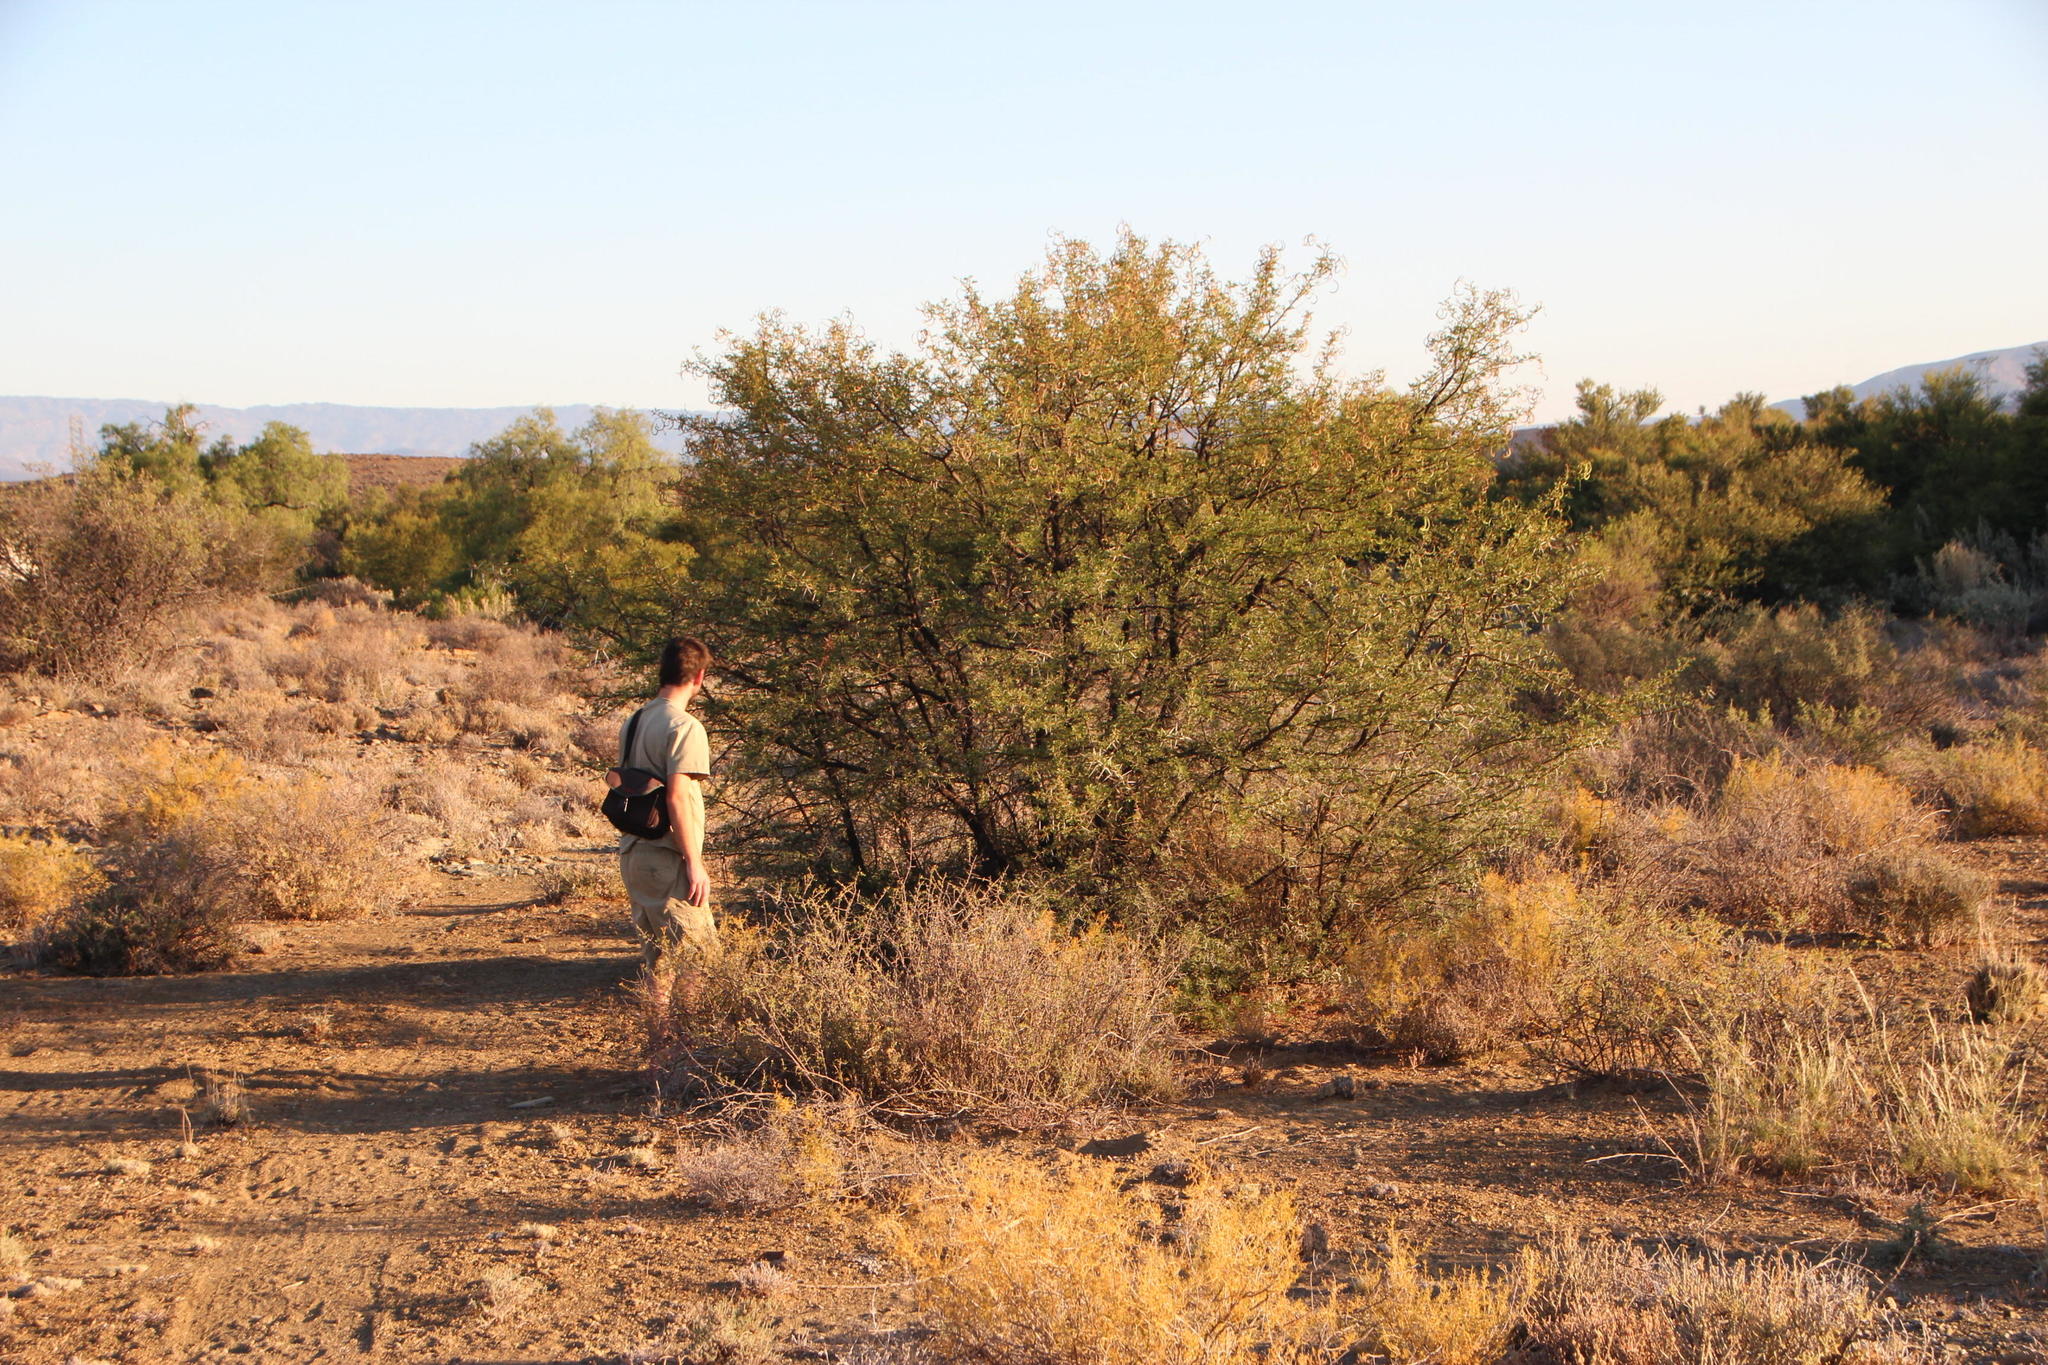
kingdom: Plantae
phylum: Tracheophyta
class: Magnoliopsida
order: Fabales
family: Fabaceae
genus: Vachellia
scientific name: Vachellia karroo
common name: Sweet thorn
